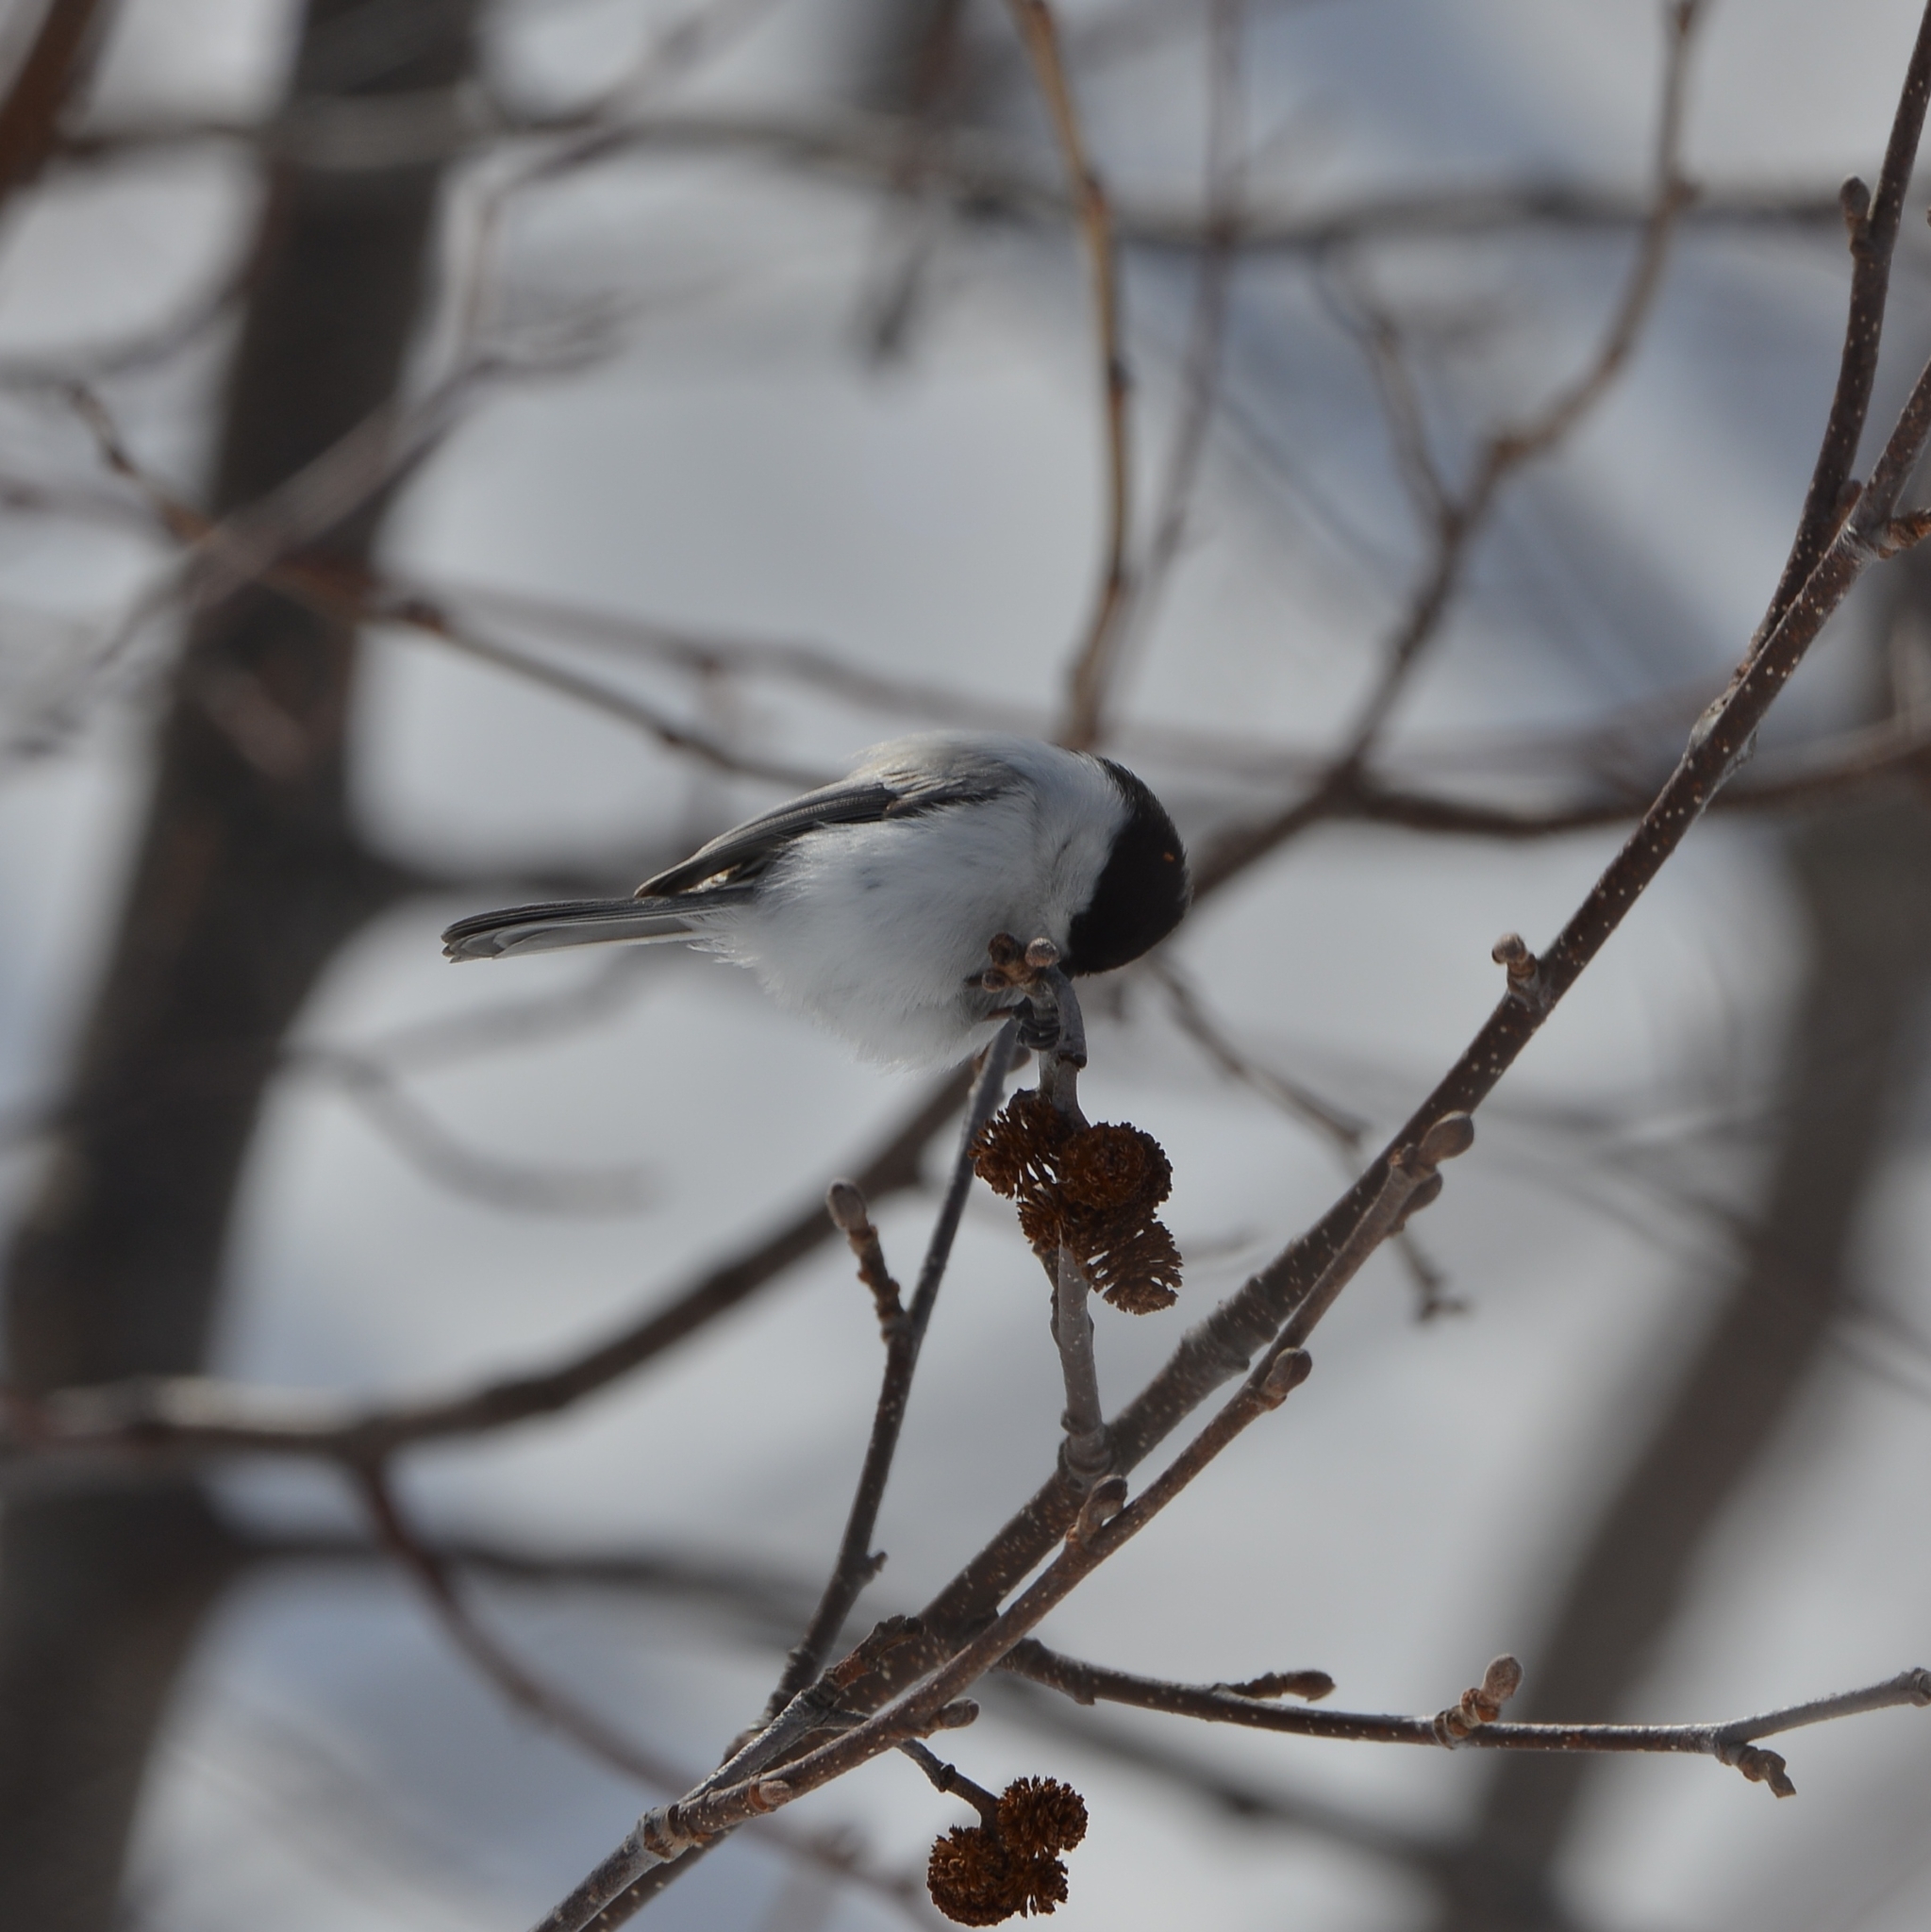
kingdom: Animalia
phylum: Chordata
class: Aves
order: Passeriformes
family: Paridae
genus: Poecile
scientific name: Poecile montanus
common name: Willow tit
